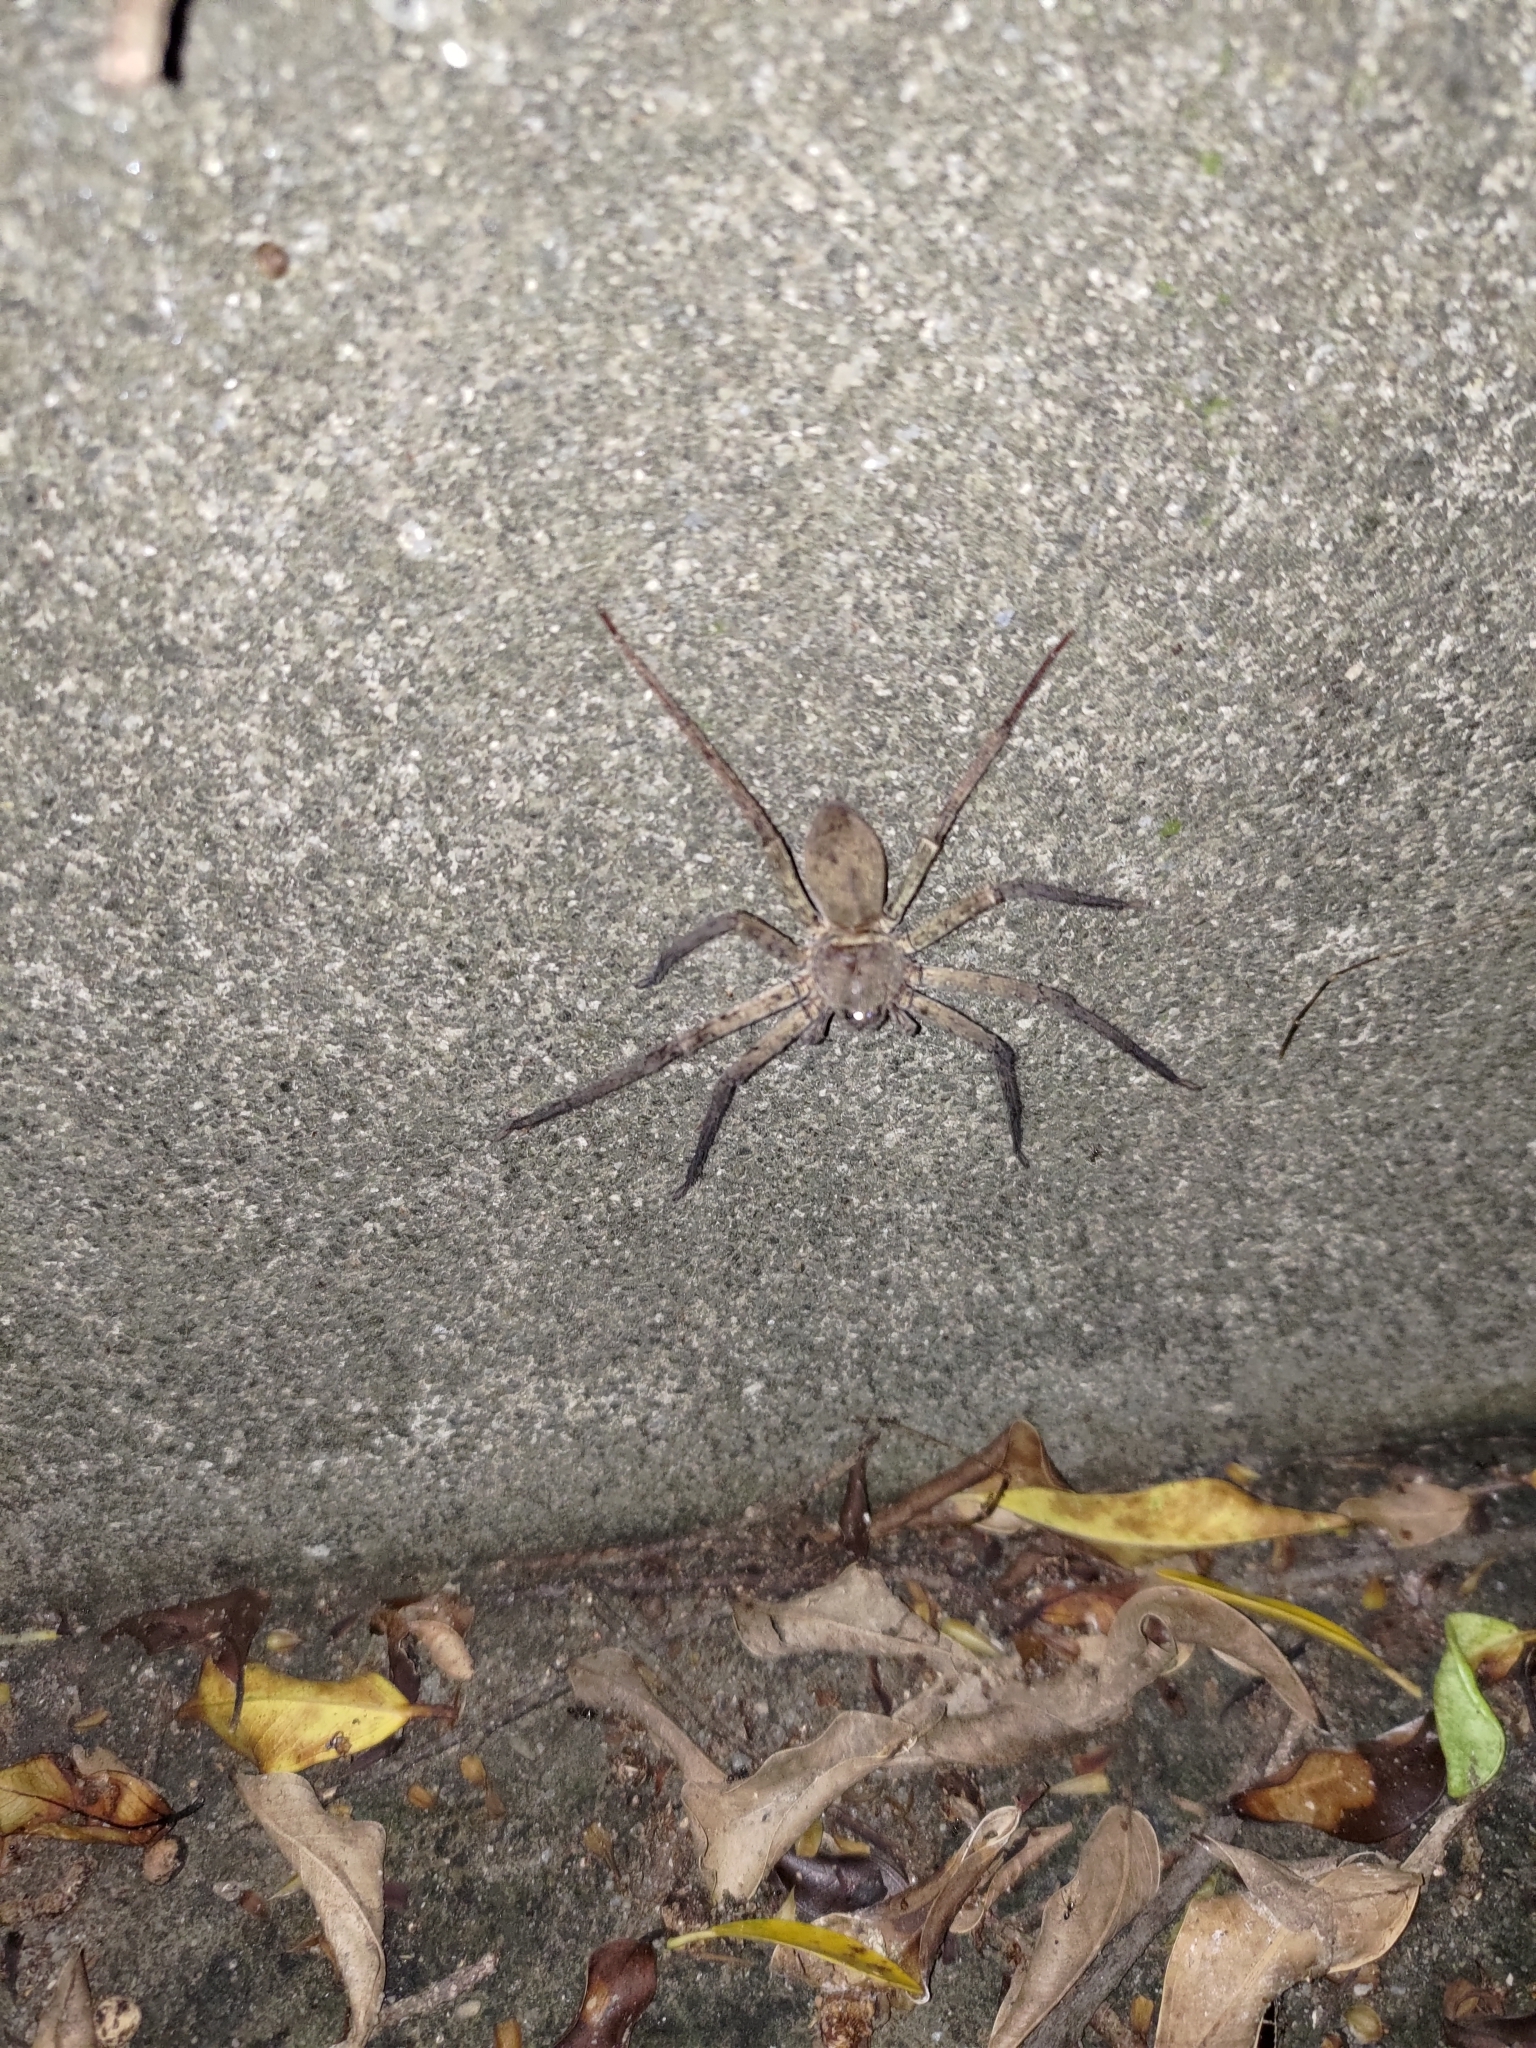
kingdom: Animalia
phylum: Arthropoda
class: Arachnida
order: Araneae
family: Sparassidae
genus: Heteropoda
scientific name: Heteropoda venatoria
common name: Huntsman spider
